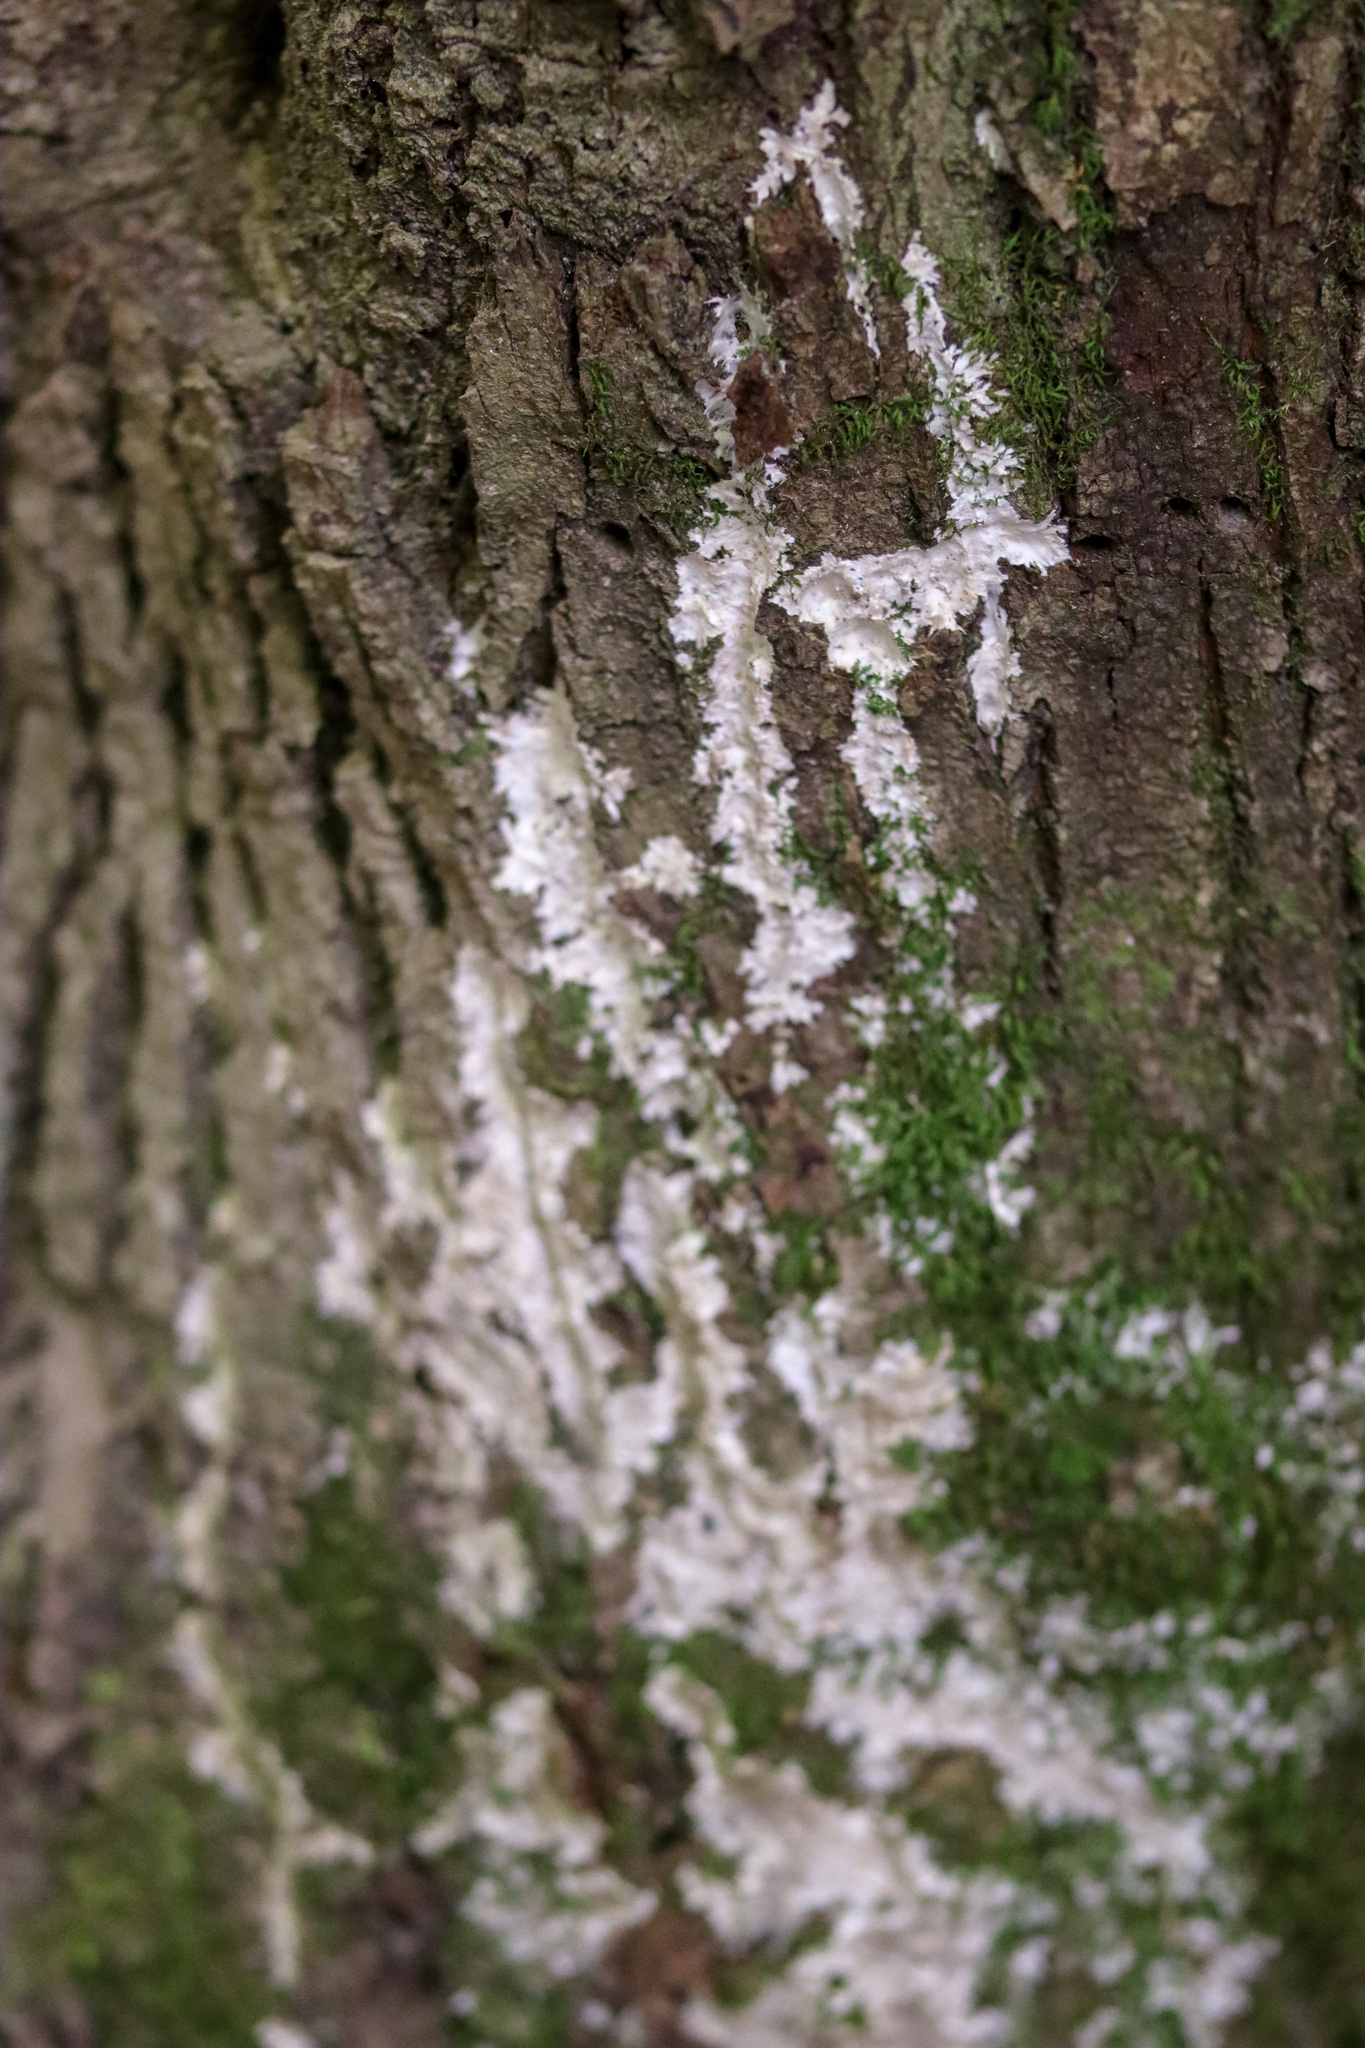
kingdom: Fungi
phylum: Basidiomycota
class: Agaricomycetes
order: Sebacinales
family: Sebacinaceae
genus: Sebacina
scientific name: Sebacina incrustans
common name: Enveloping crust
